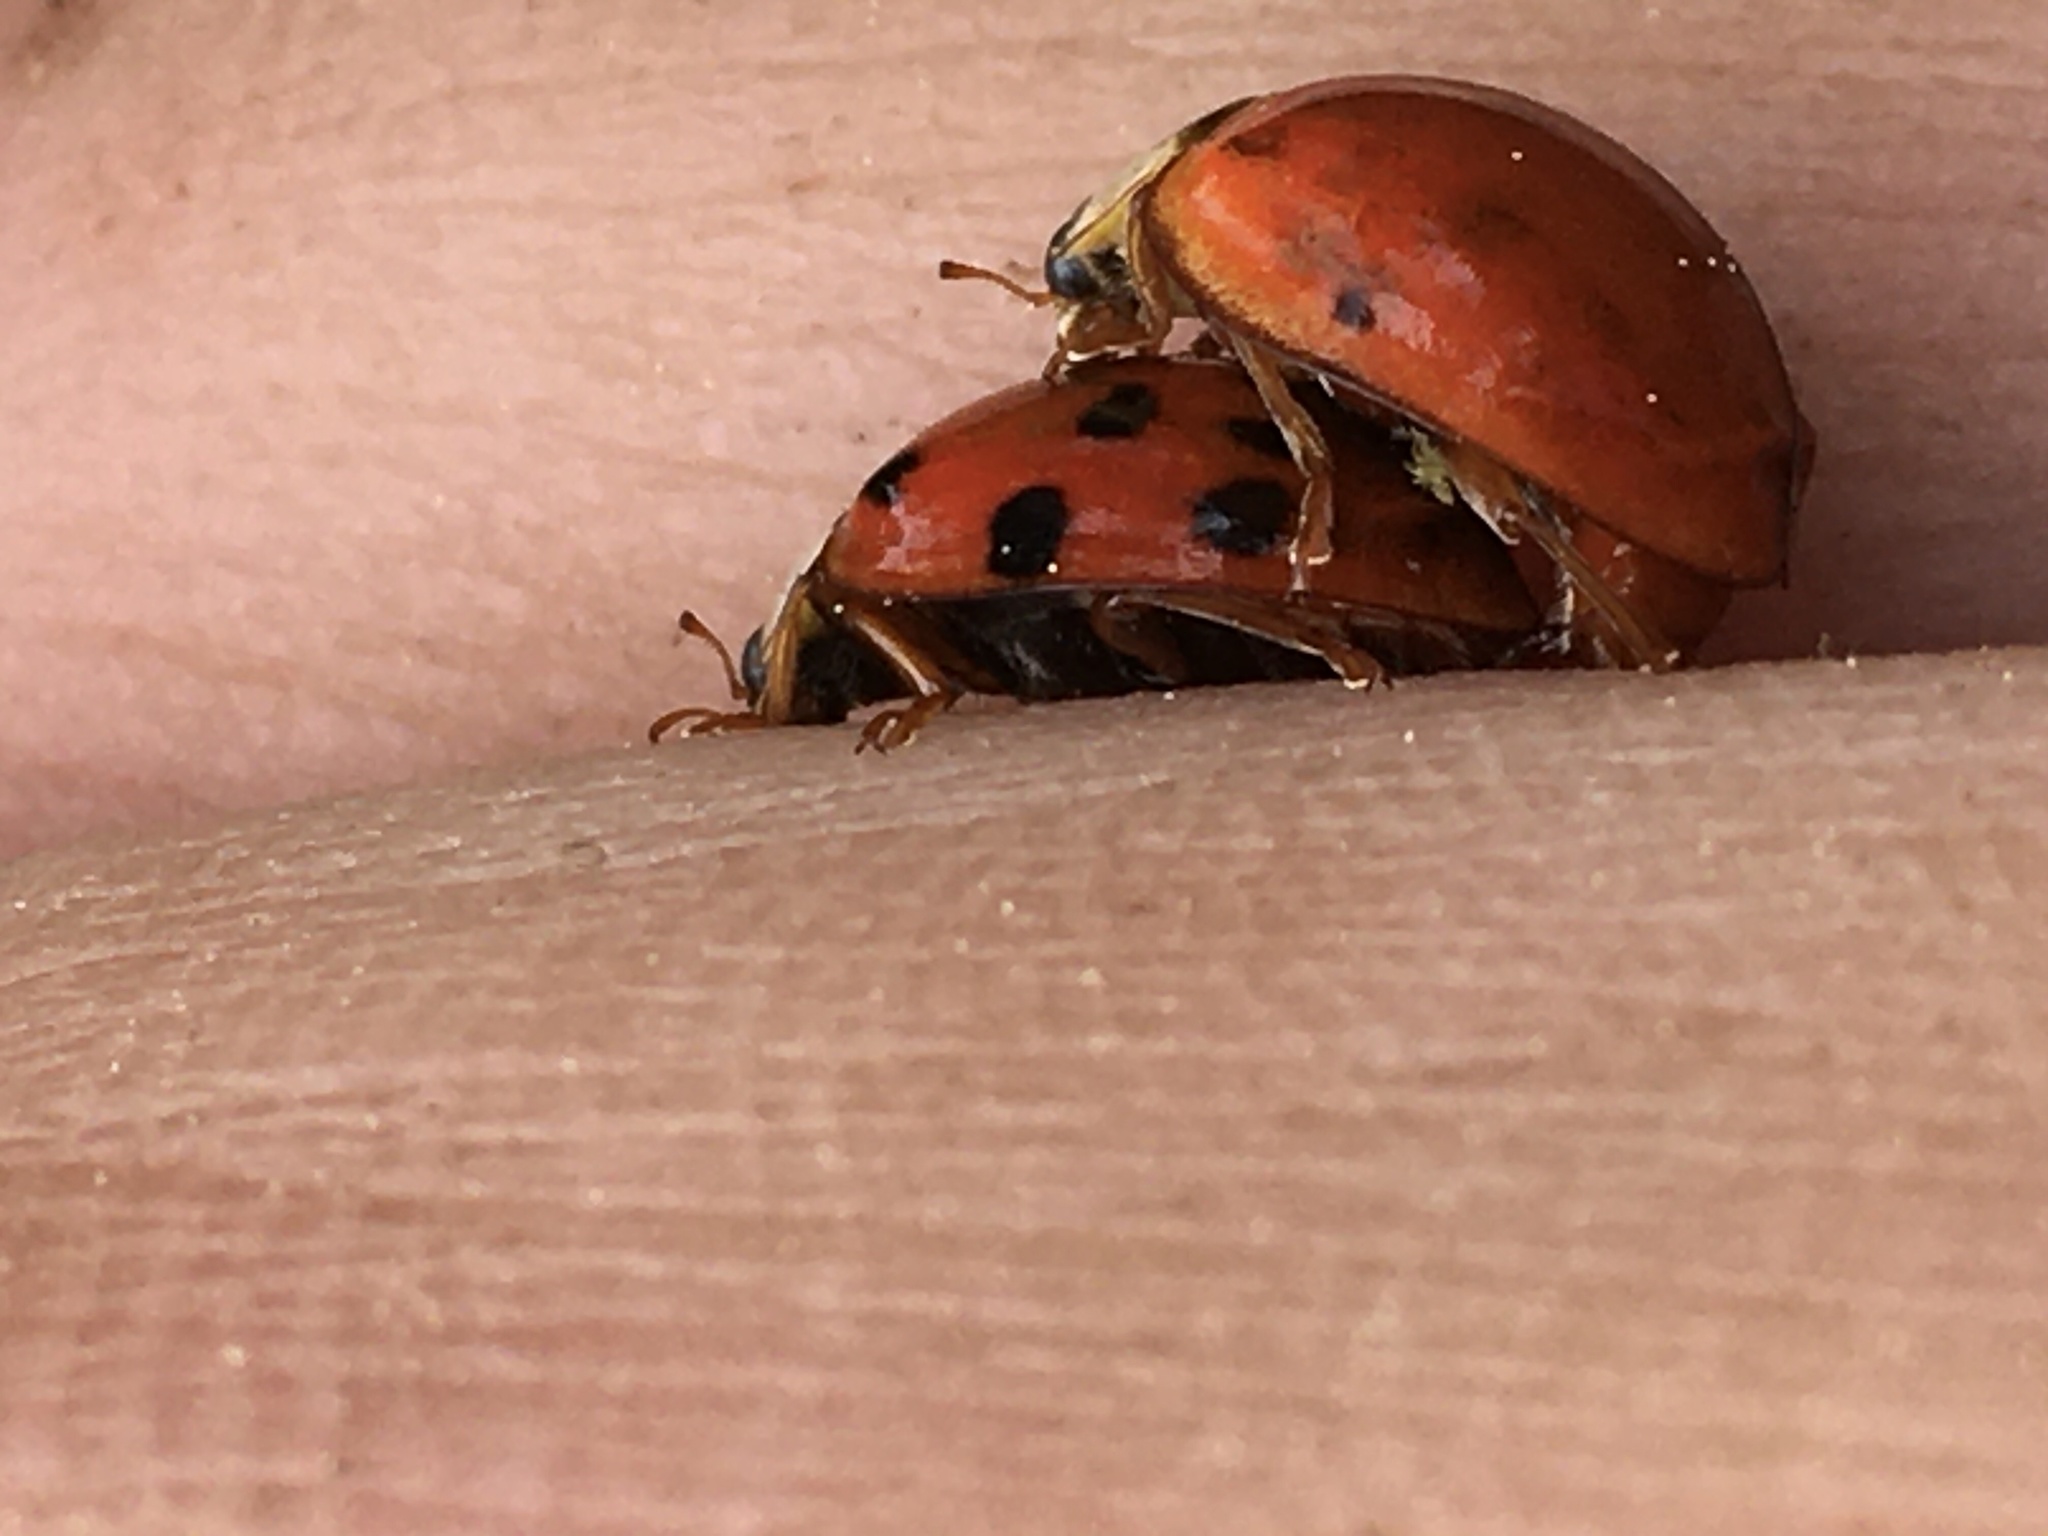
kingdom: Animalia
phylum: Arthropoda
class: Insecta
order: Coleoptera
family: Coccinellidae
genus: Harmonia
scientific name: Harmonia axyridis
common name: Harlequin ladybird
